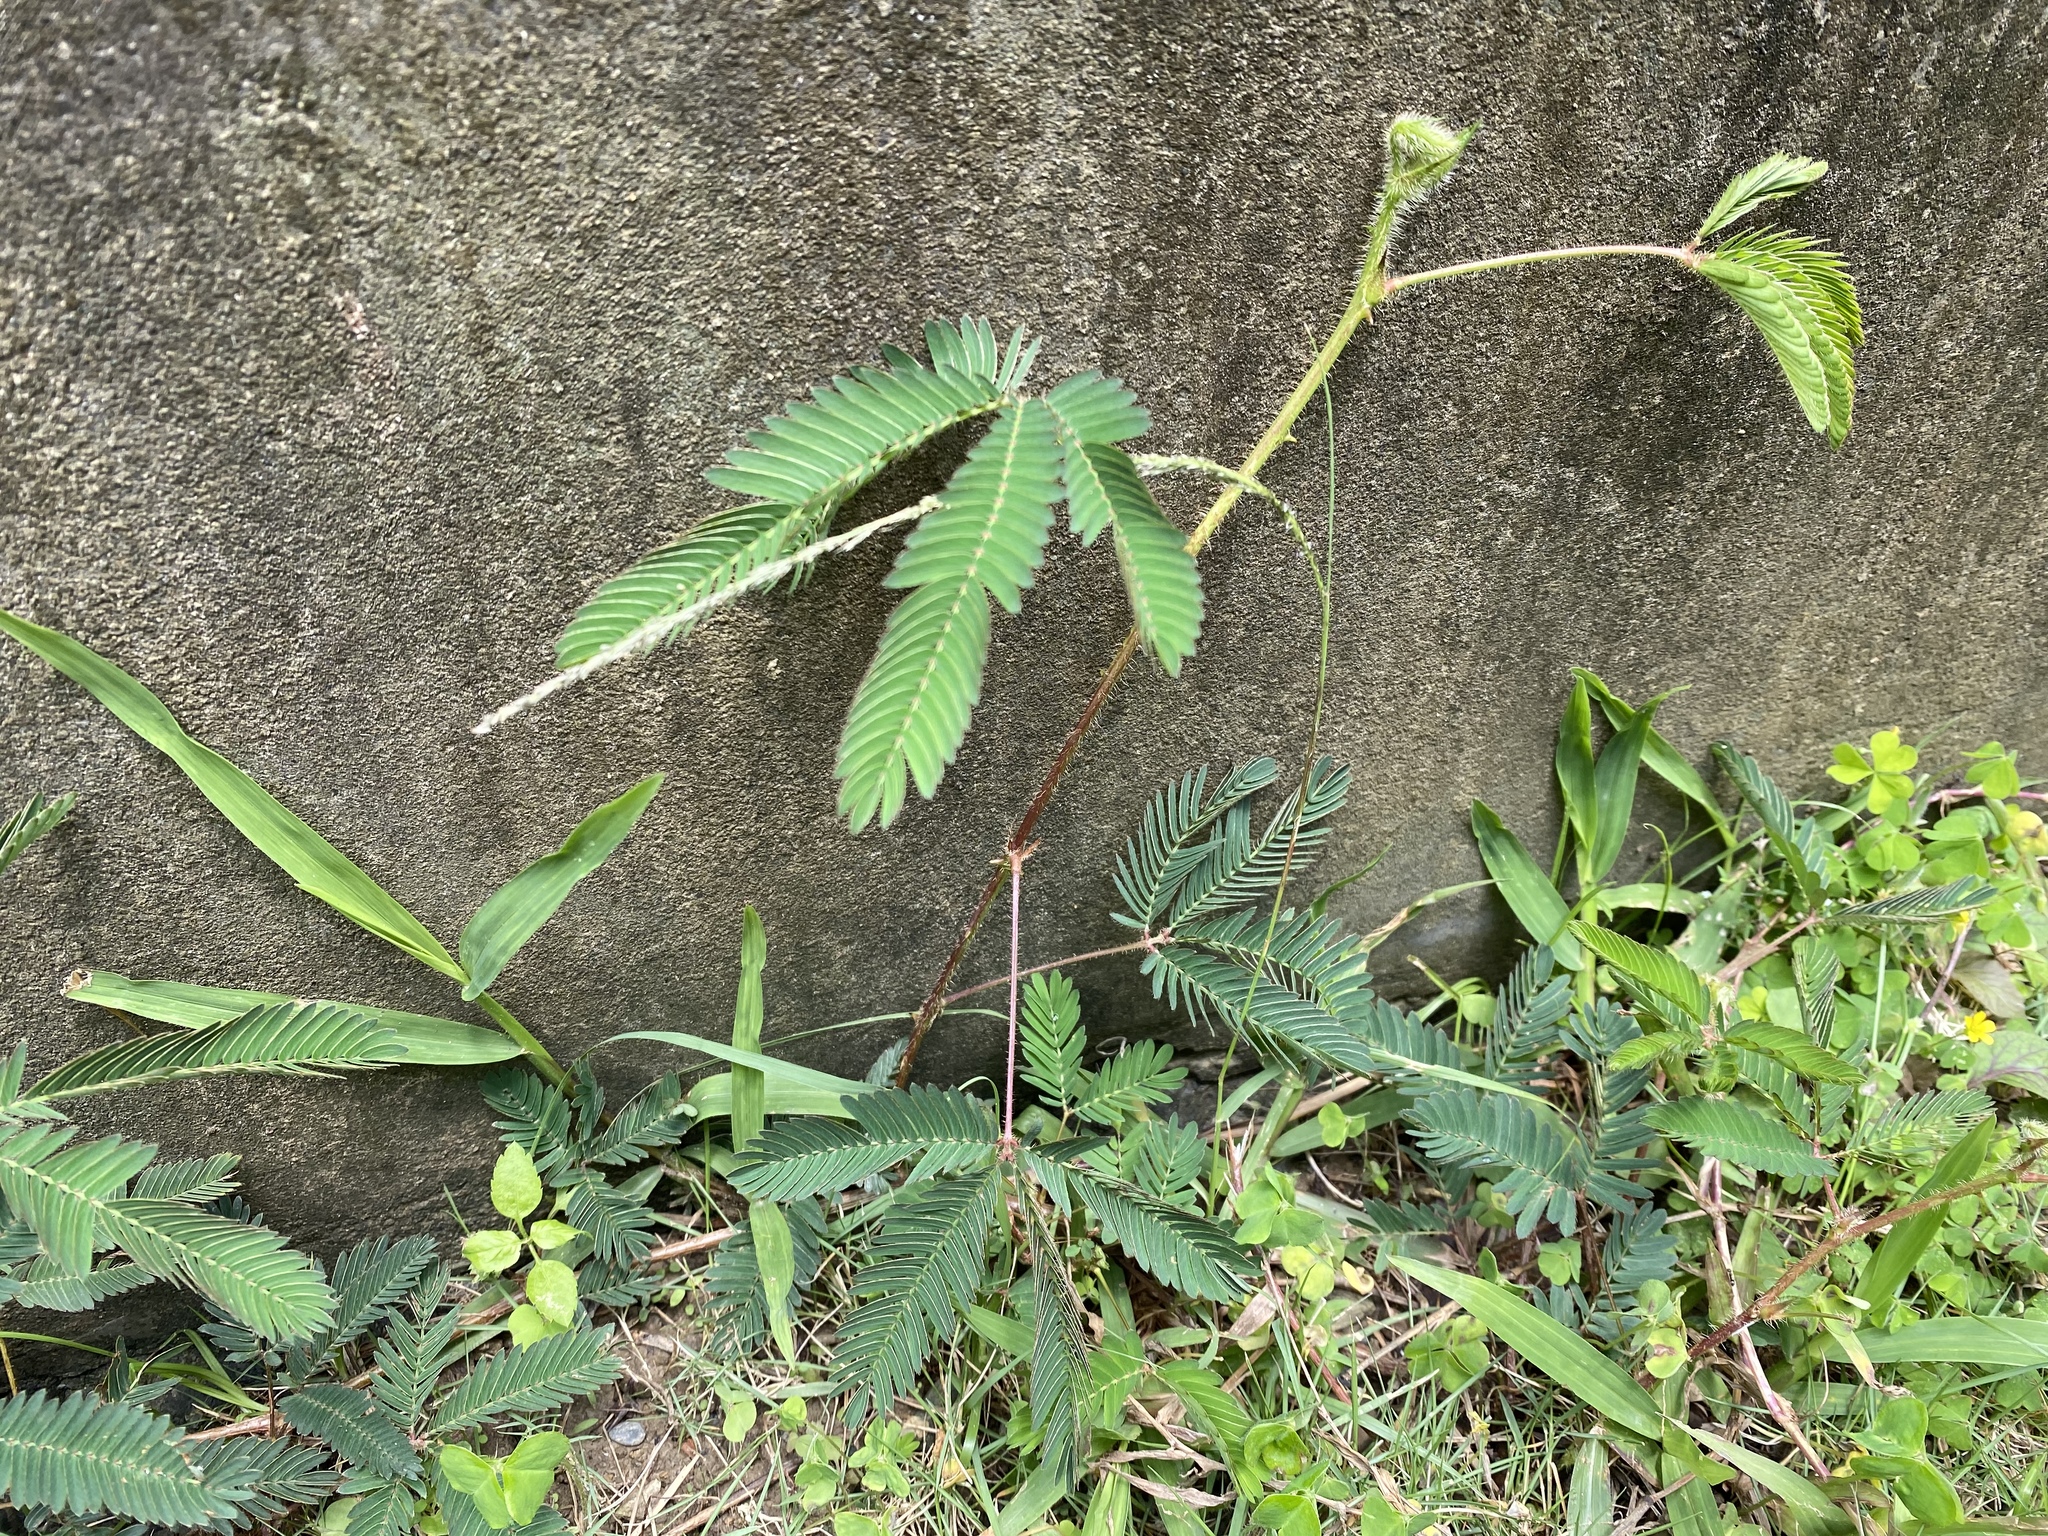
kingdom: Plantae
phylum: Tracheophyta
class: Magnoliopsida
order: Fabales
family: Fabaceae
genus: Mimosa
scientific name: Mimosa pudica
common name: Sensitive plant
